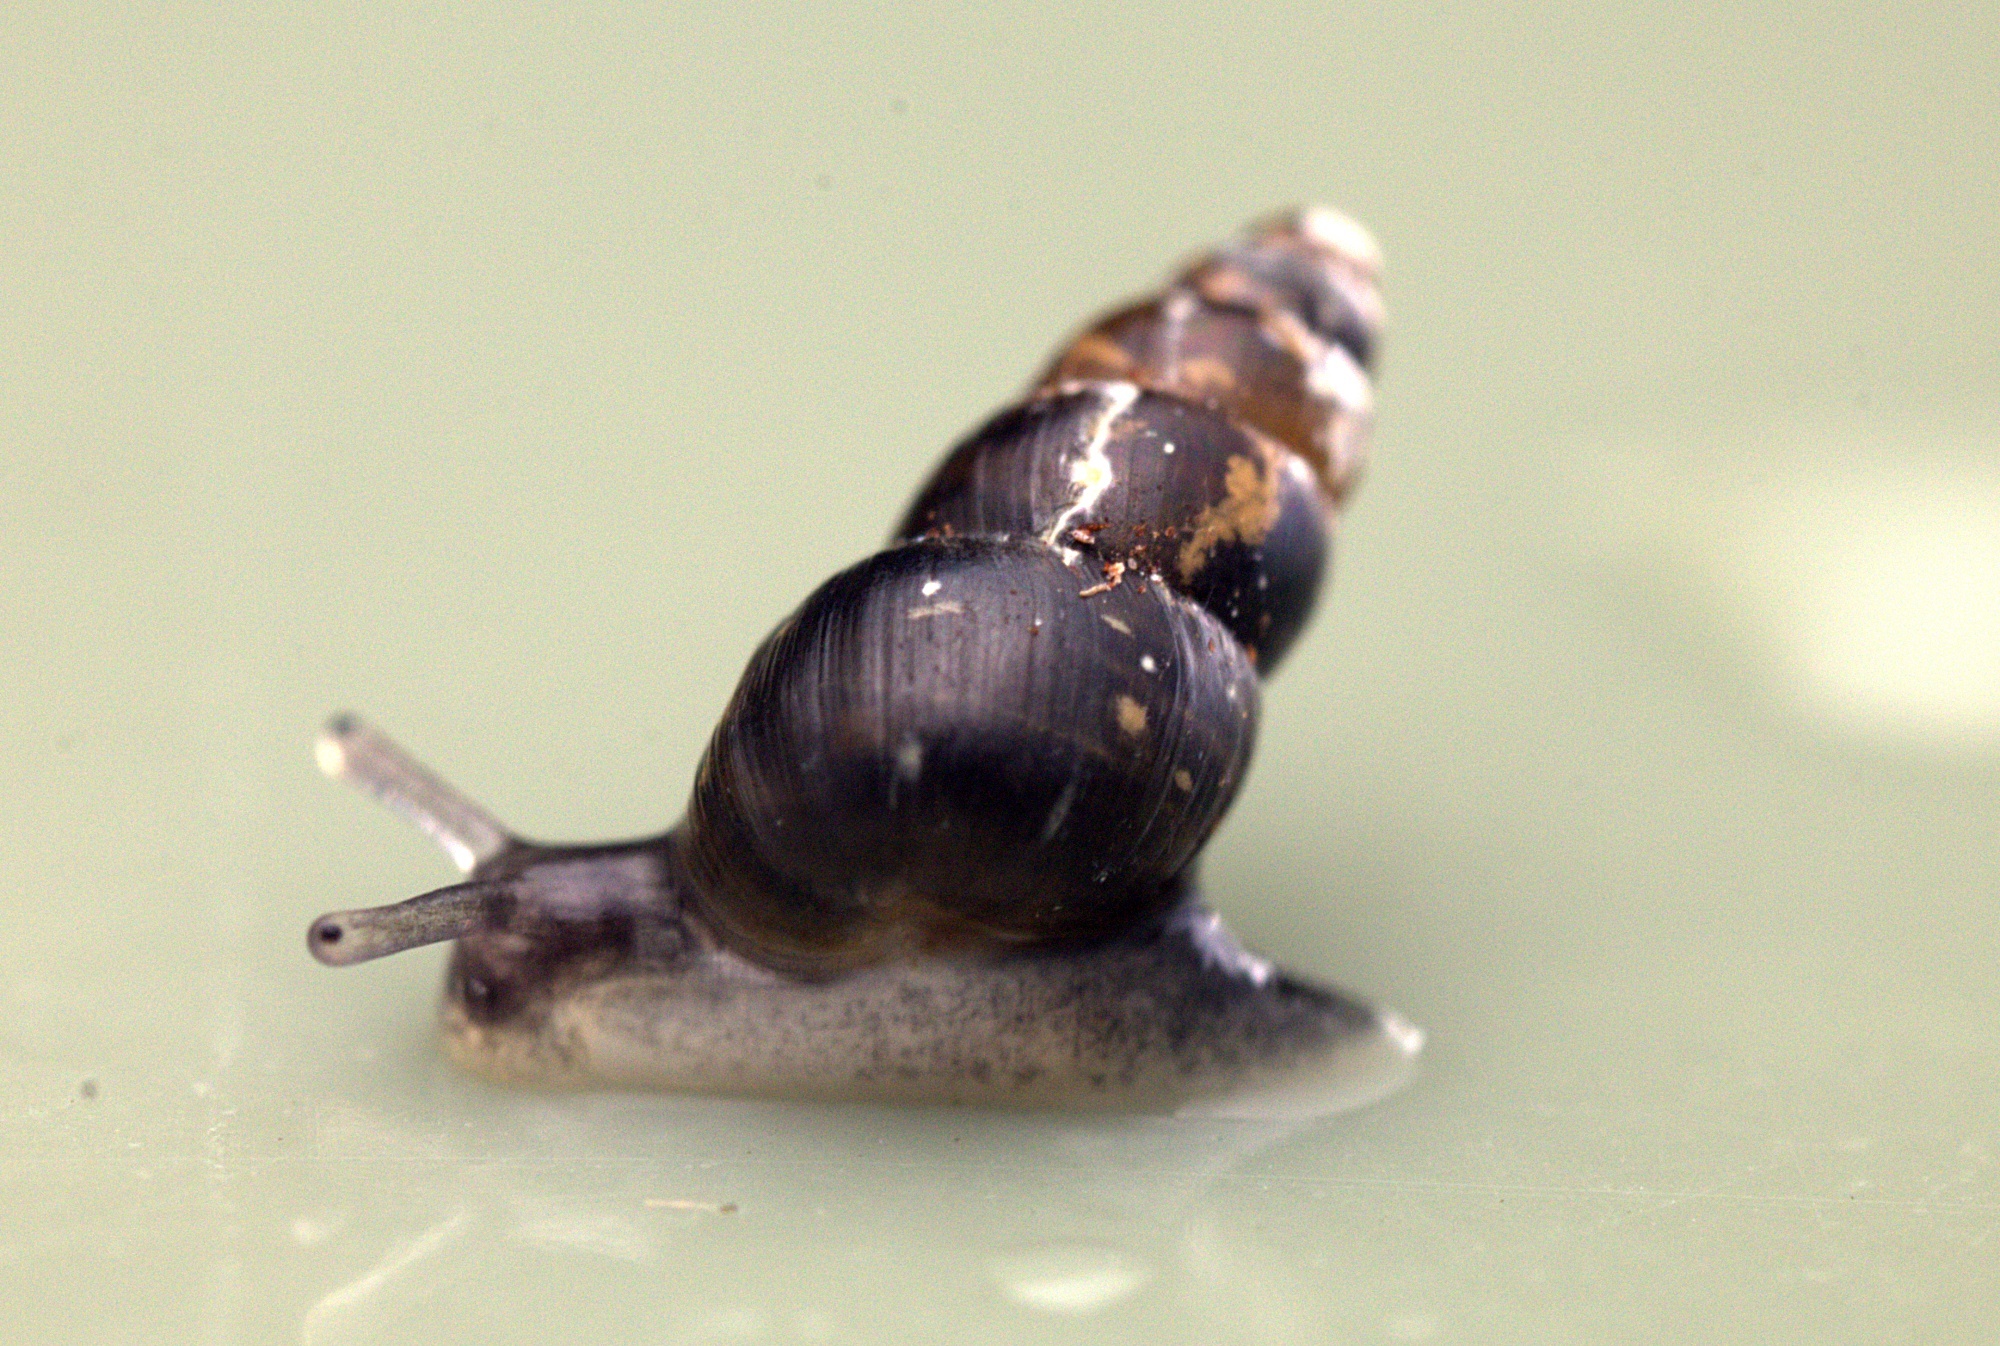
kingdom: Animalia
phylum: Mollusca
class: Gastropoda
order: Stylommatophora
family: Achatinellidae
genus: Tornatellinops
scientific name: Tornatellinops novoseelandicus
